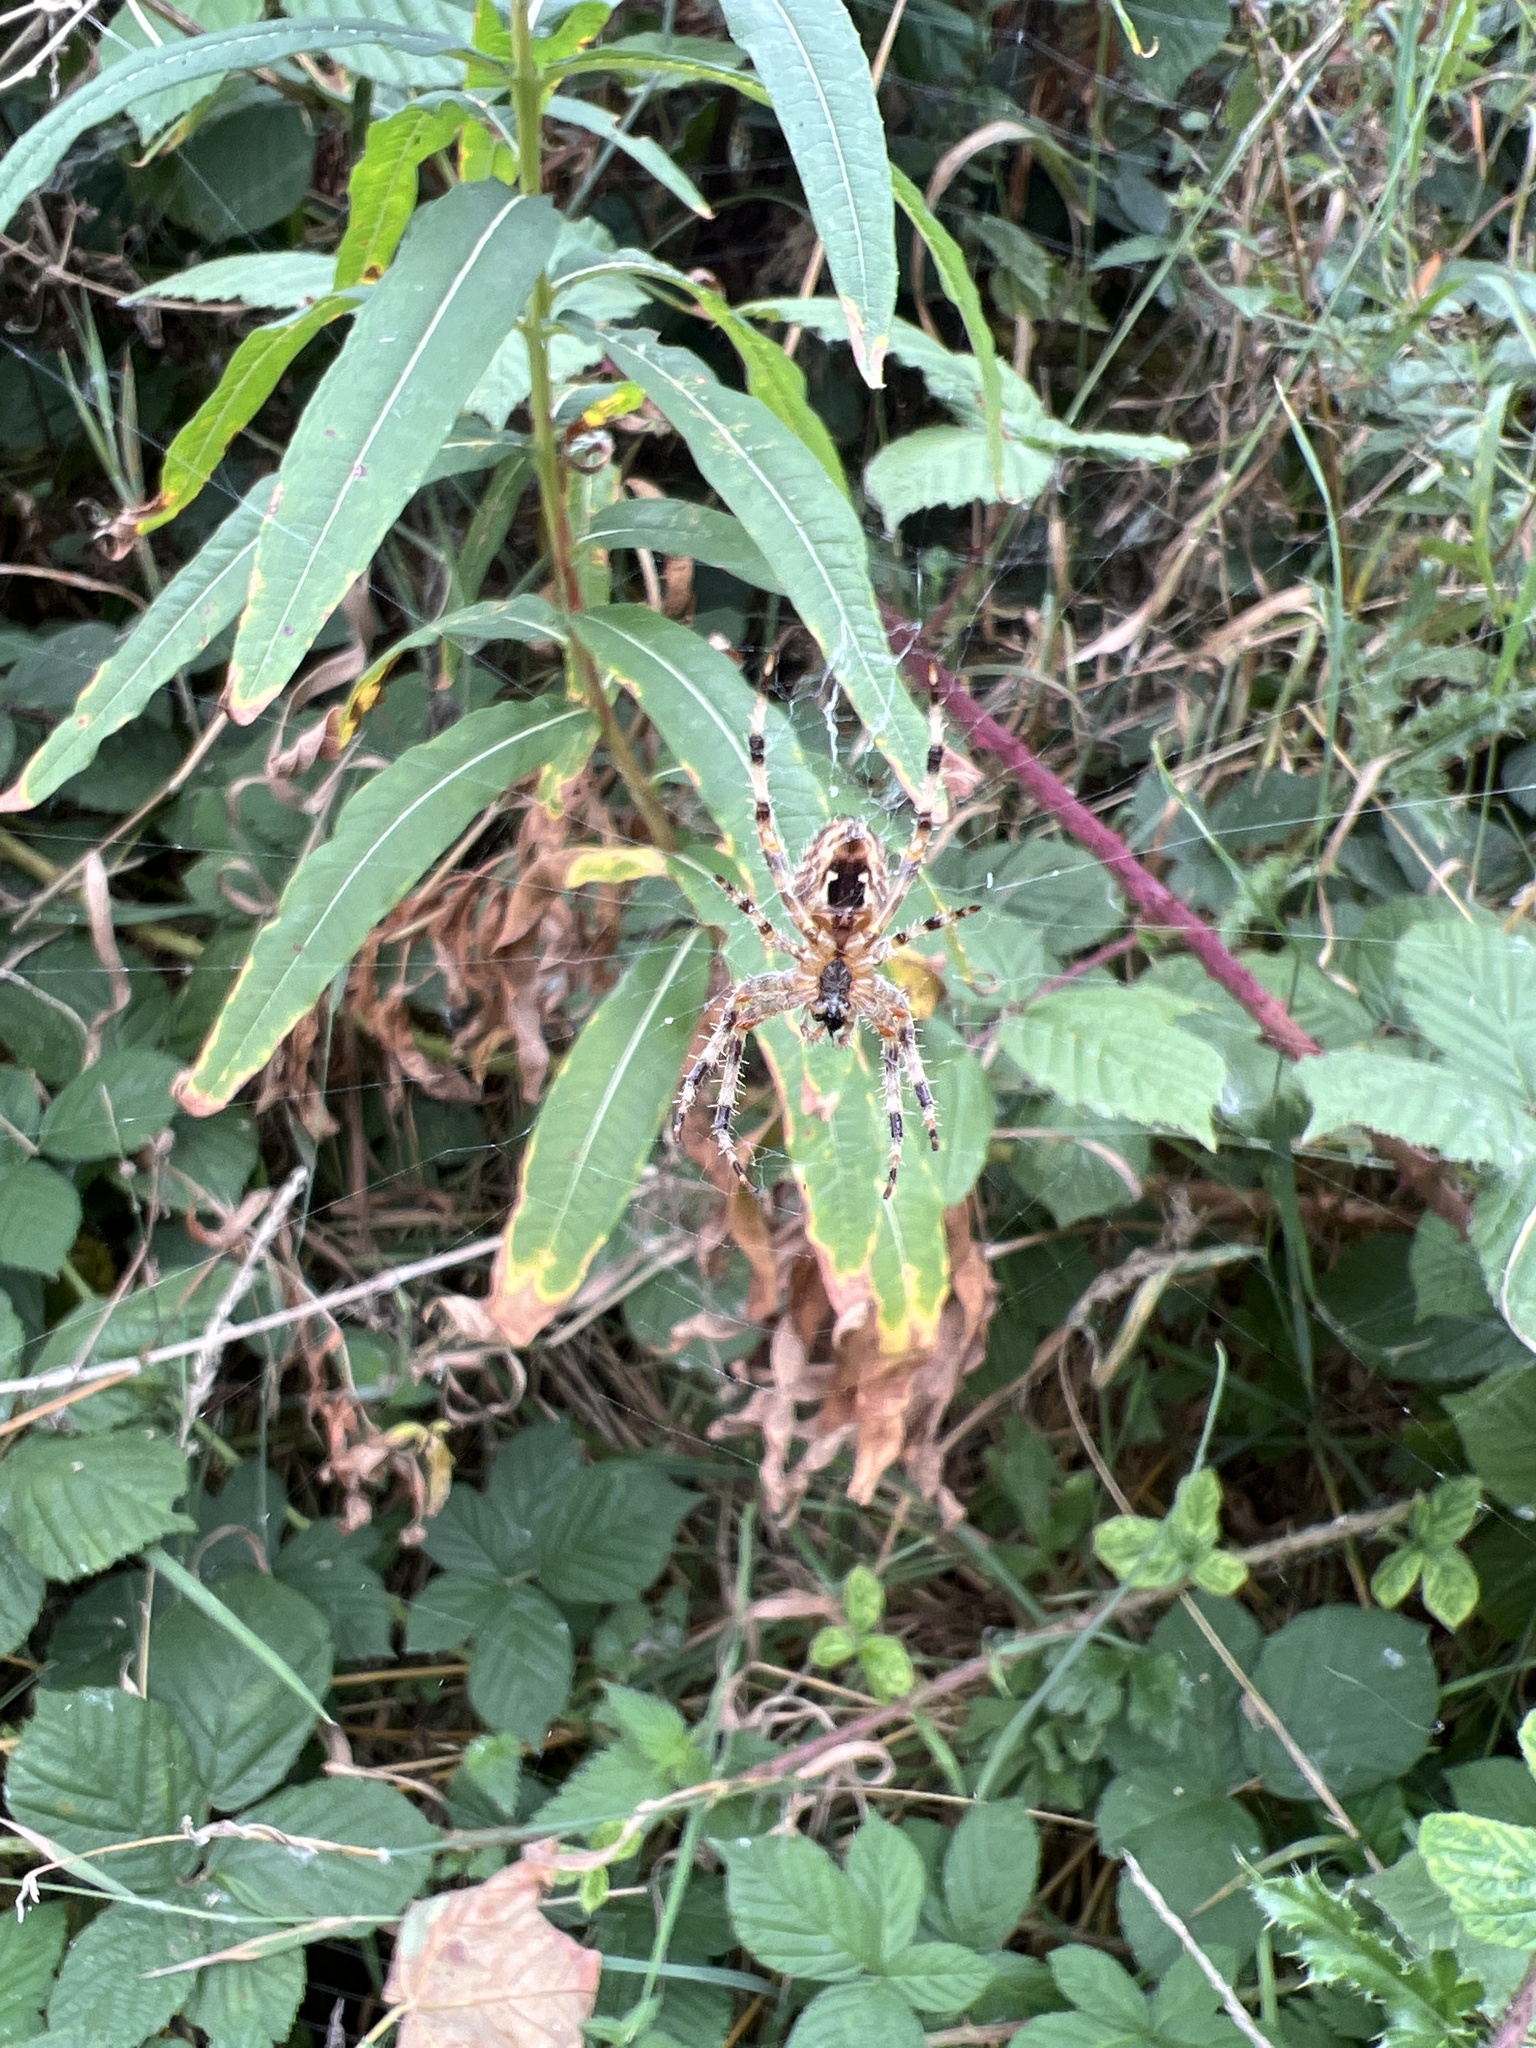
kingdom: Animalia
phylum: Arthropoda
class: Arachnida
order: Araneae
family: Araneidae
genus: Araneus
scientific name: Araneus diadematus
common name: Cross orbweaver
